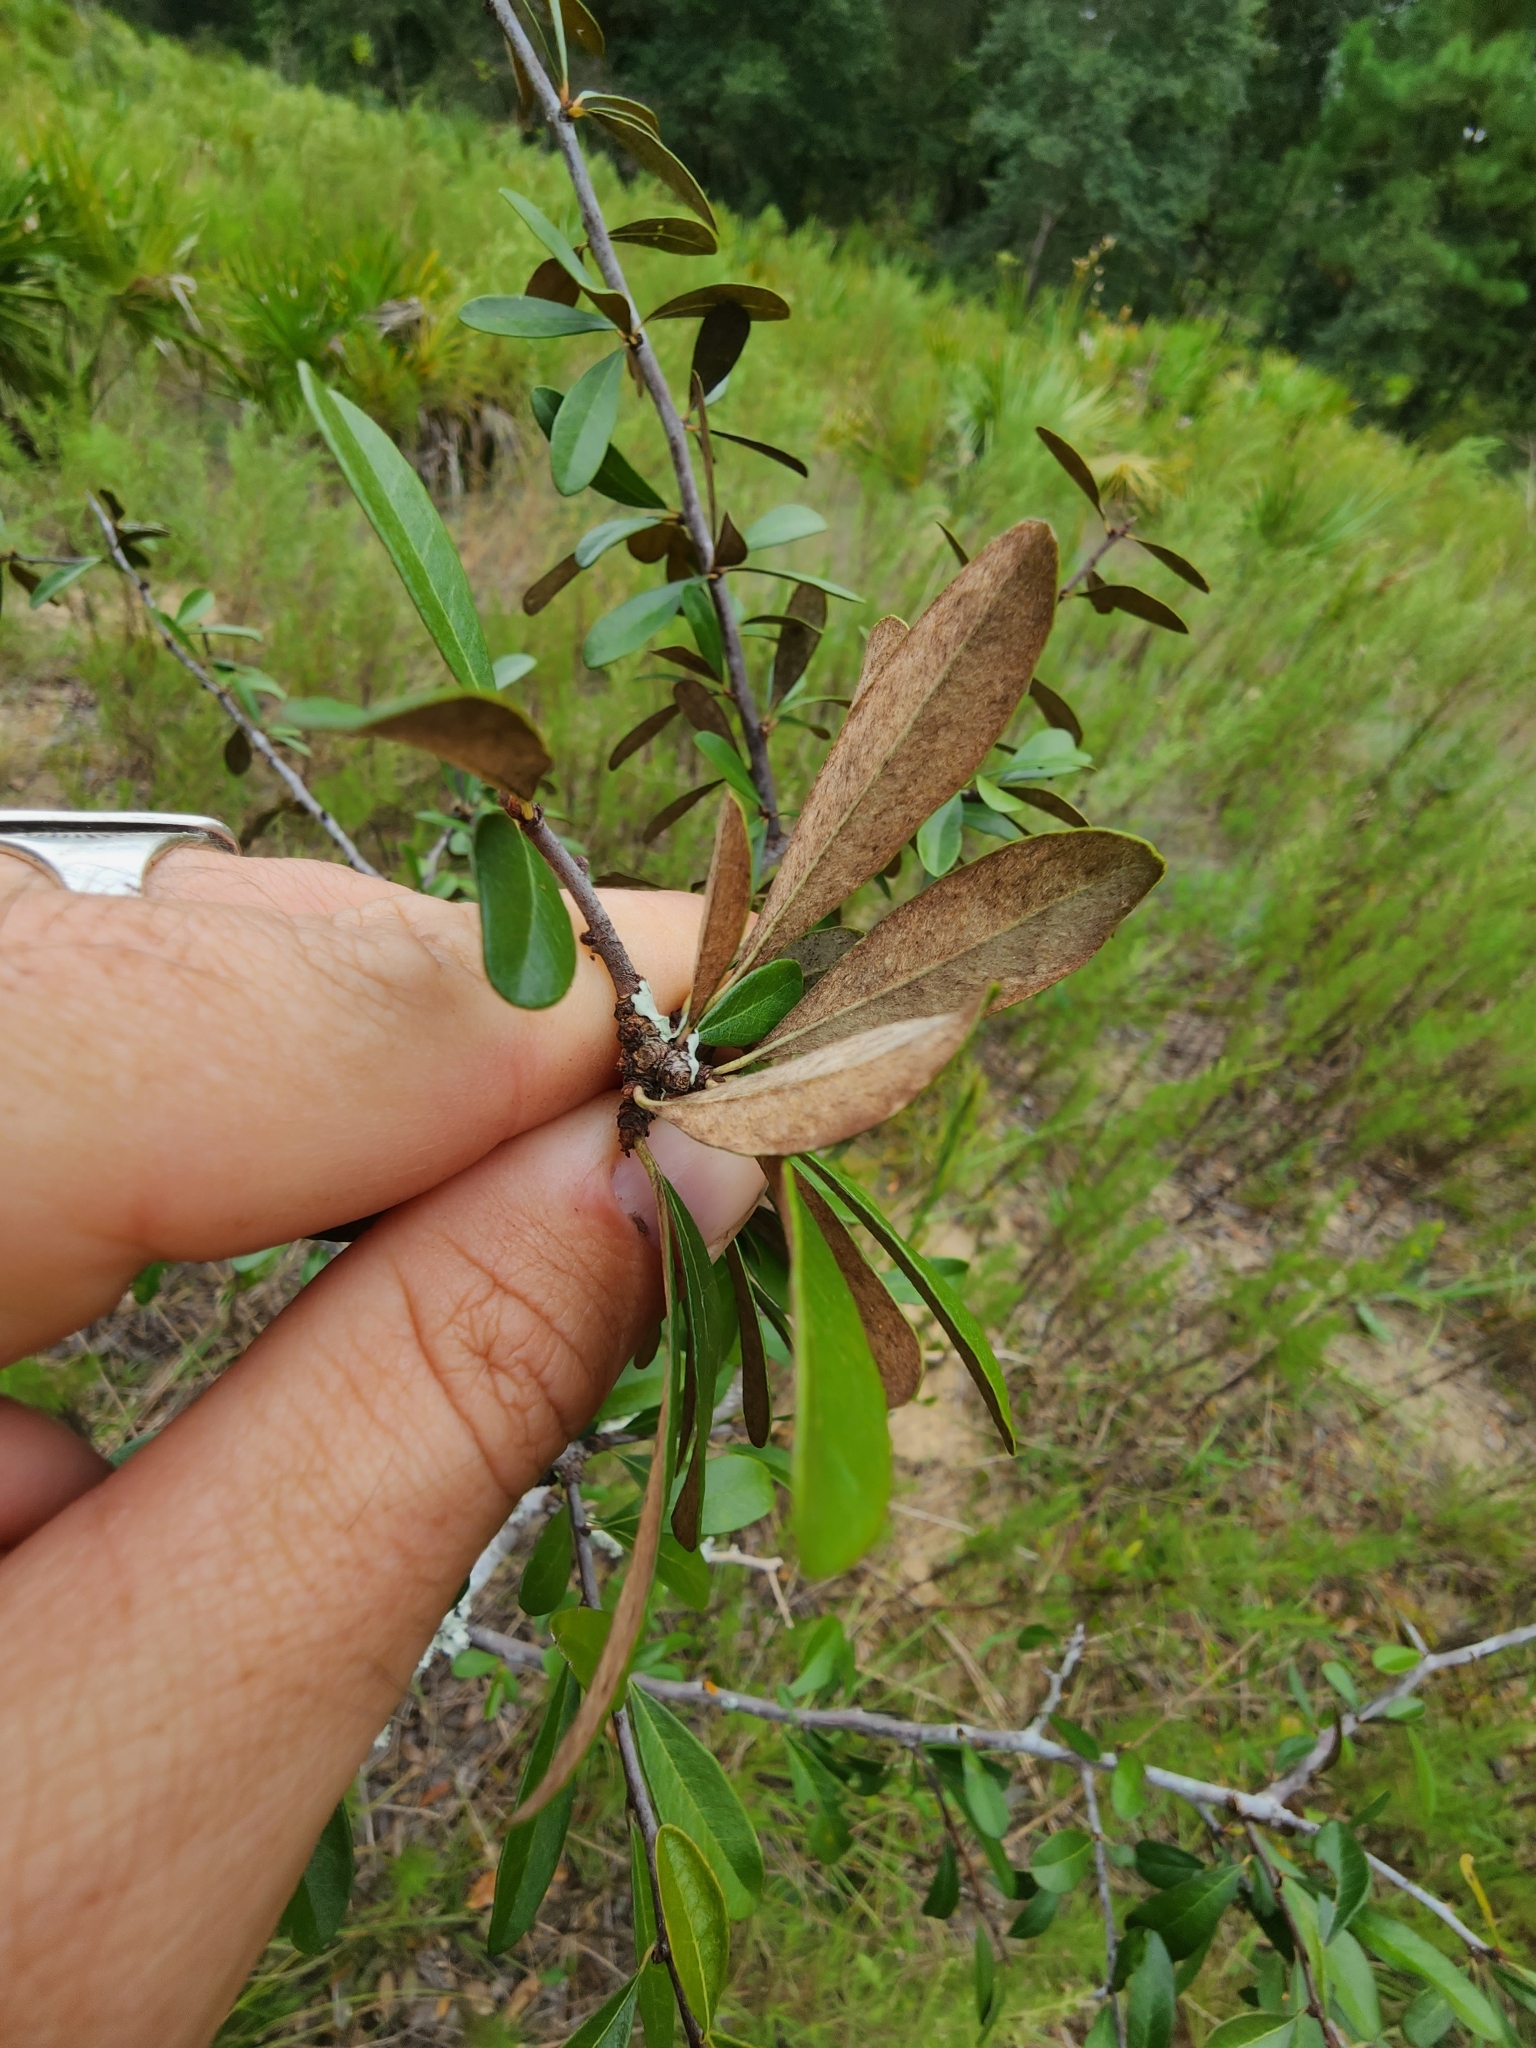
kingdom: Plantae
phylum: Tracheophyta
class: Magnoliopsida
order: Ericales
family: Sapotaceae
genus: Sideroxylon
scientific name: Sideroxylon tenax
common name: Tough-buckthorn
